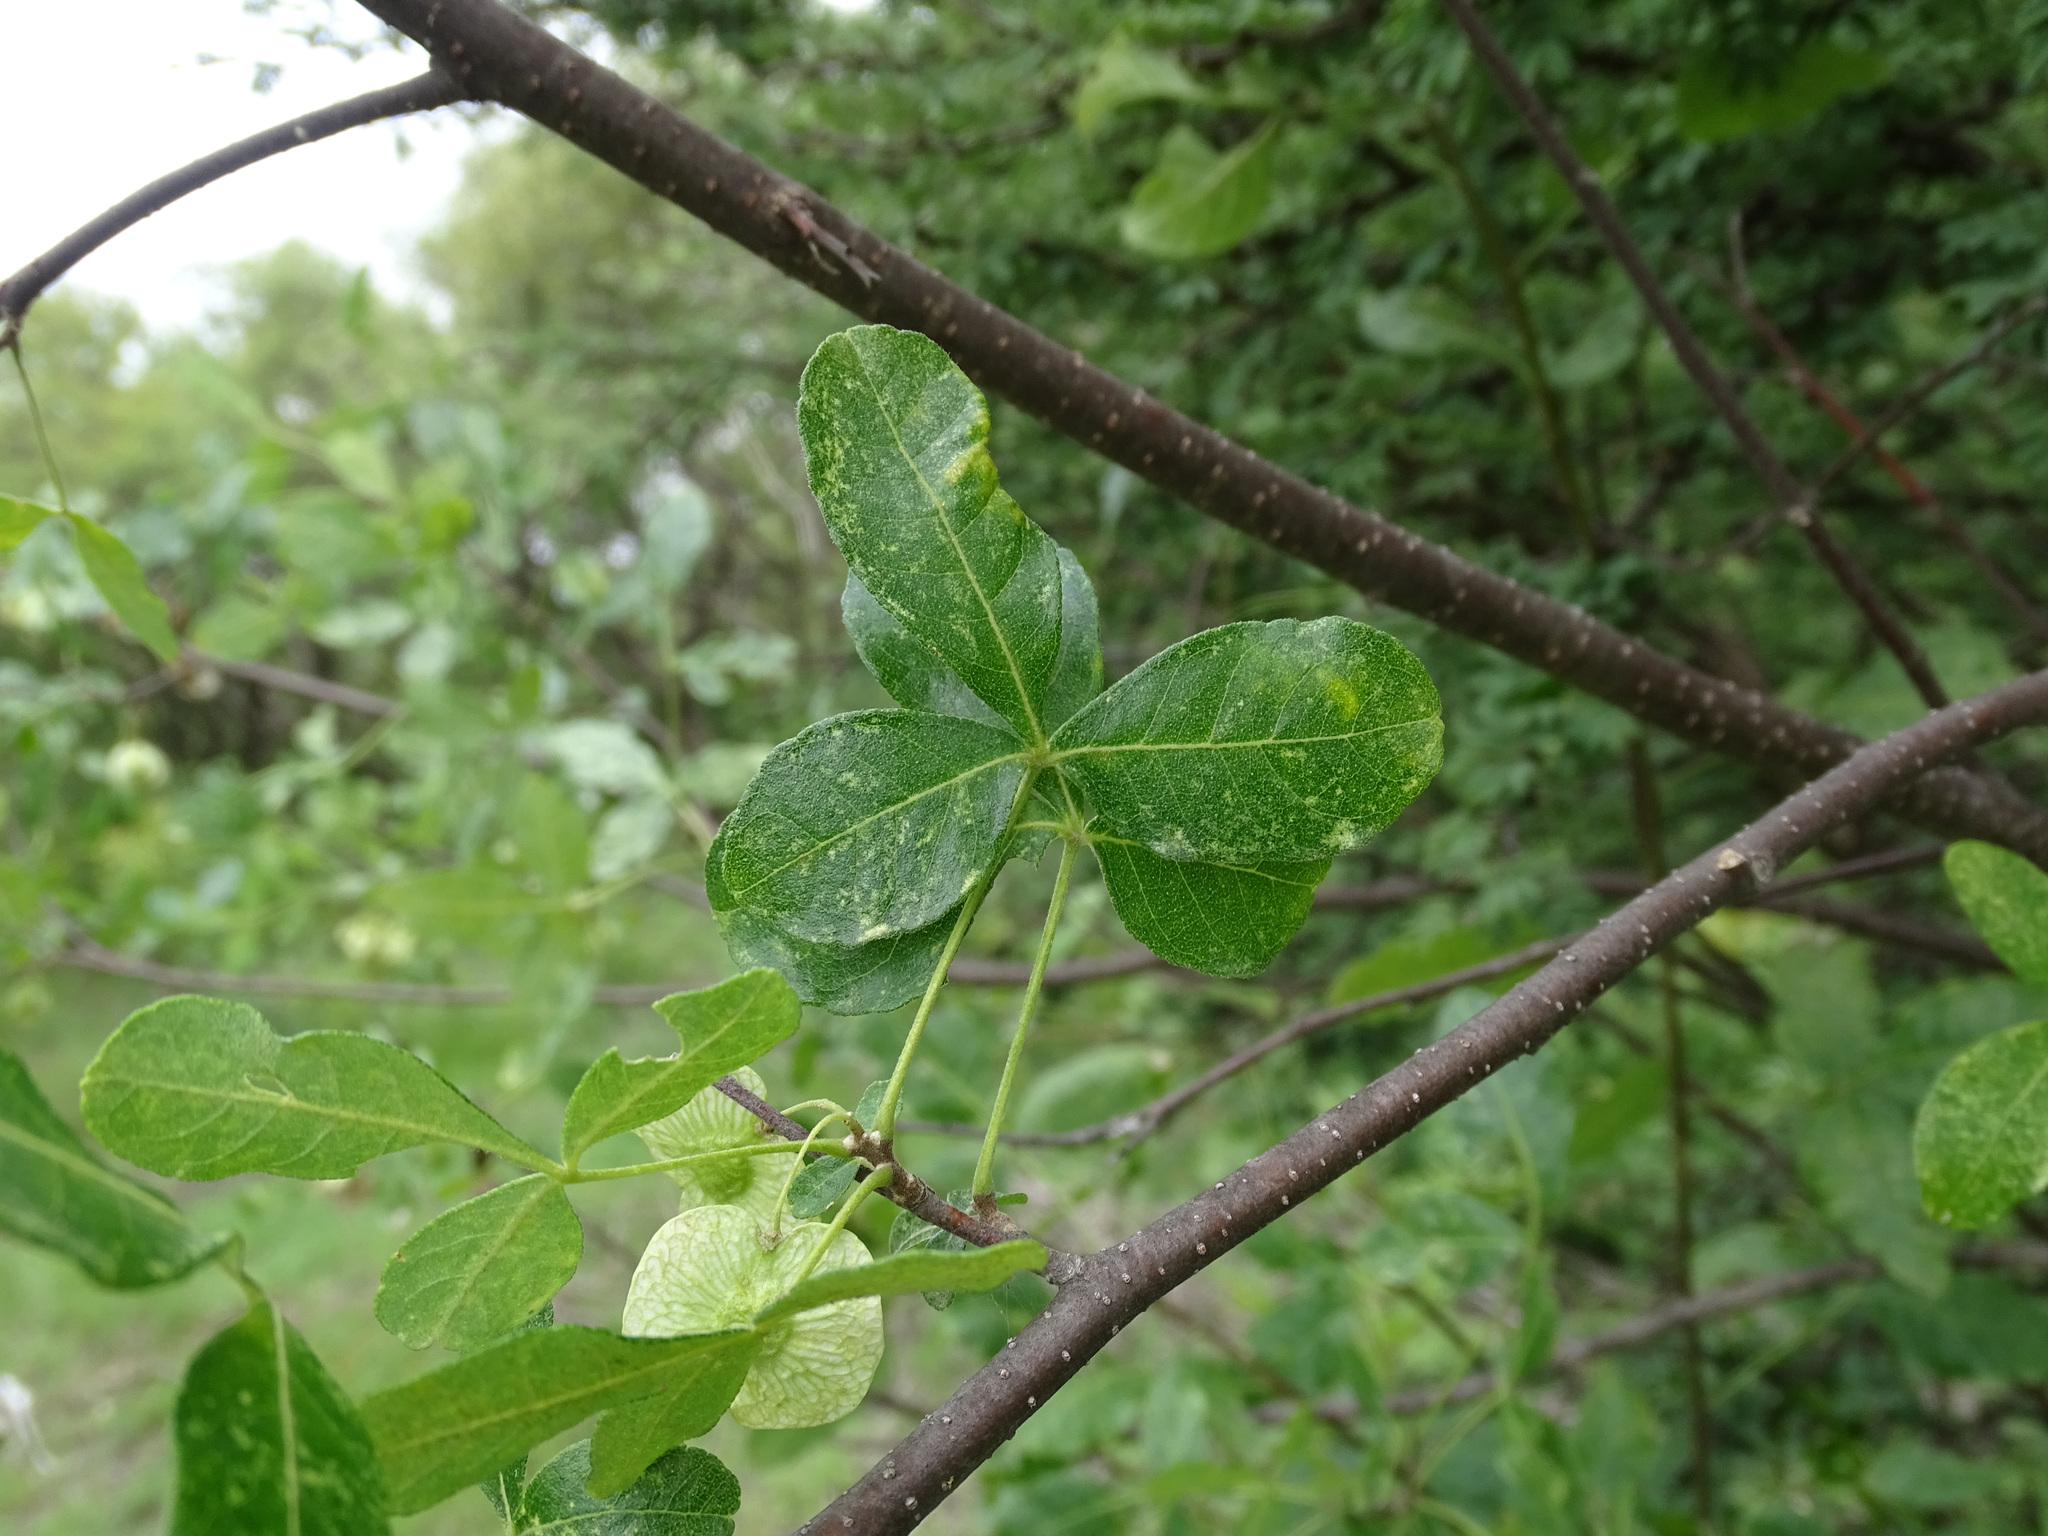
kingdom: Plantae
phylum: Tracheophyta
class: Magnoliopsida
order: Sapindales
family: Rutaceae
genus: Ptelea
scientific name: Ptelea trifoliata
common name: Common hop-tree
